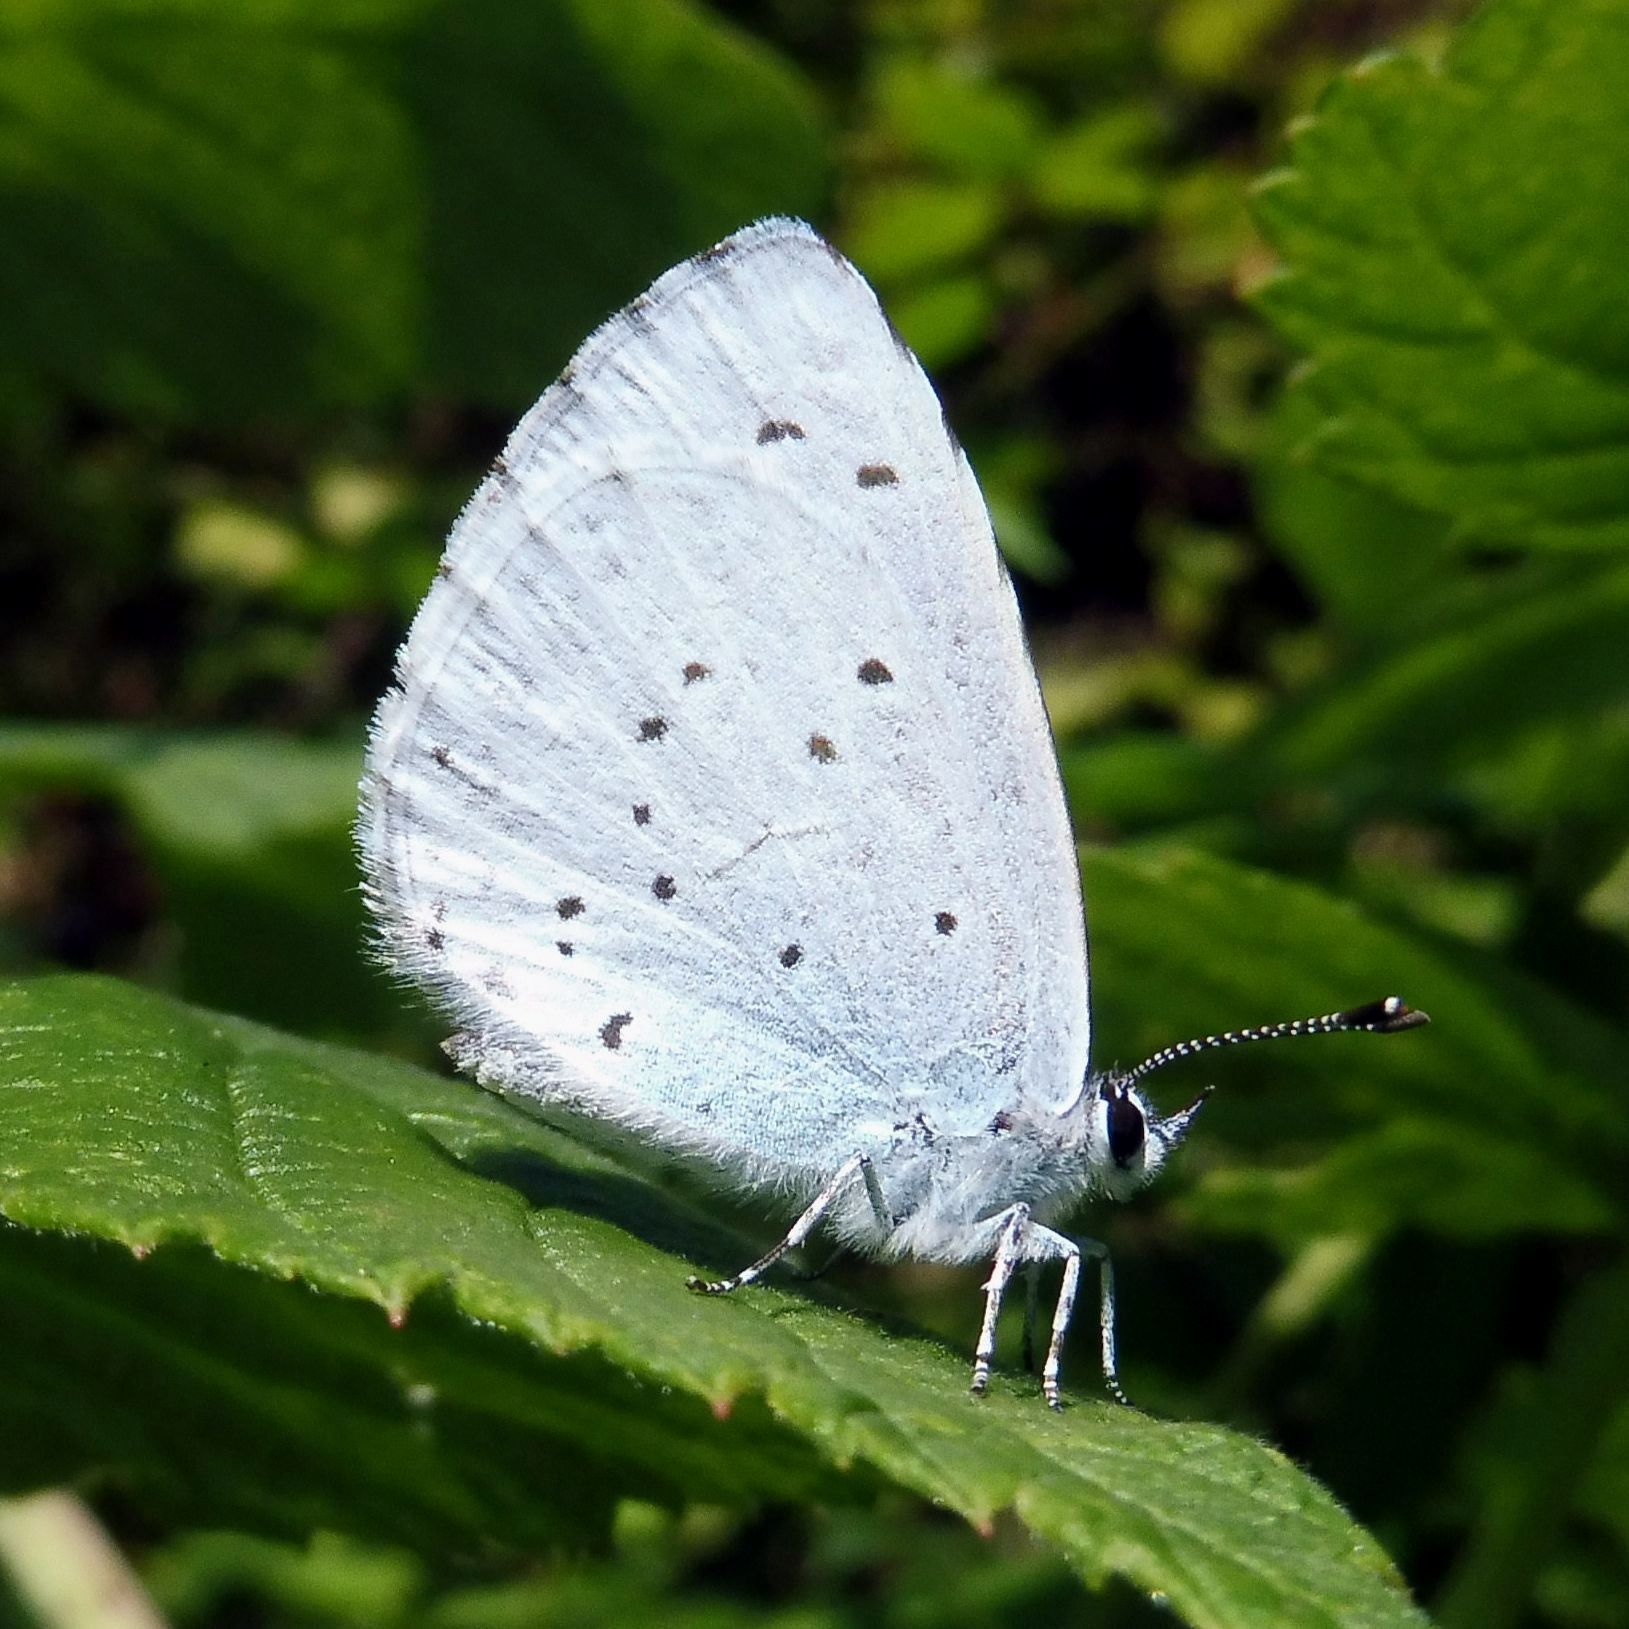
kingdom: Animalia
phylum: Arthropoda
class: Insecta
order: Lepidoptera
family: Lycaenidae
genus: Celastrina
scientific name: Celastrina argiolus
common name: Holly blue
